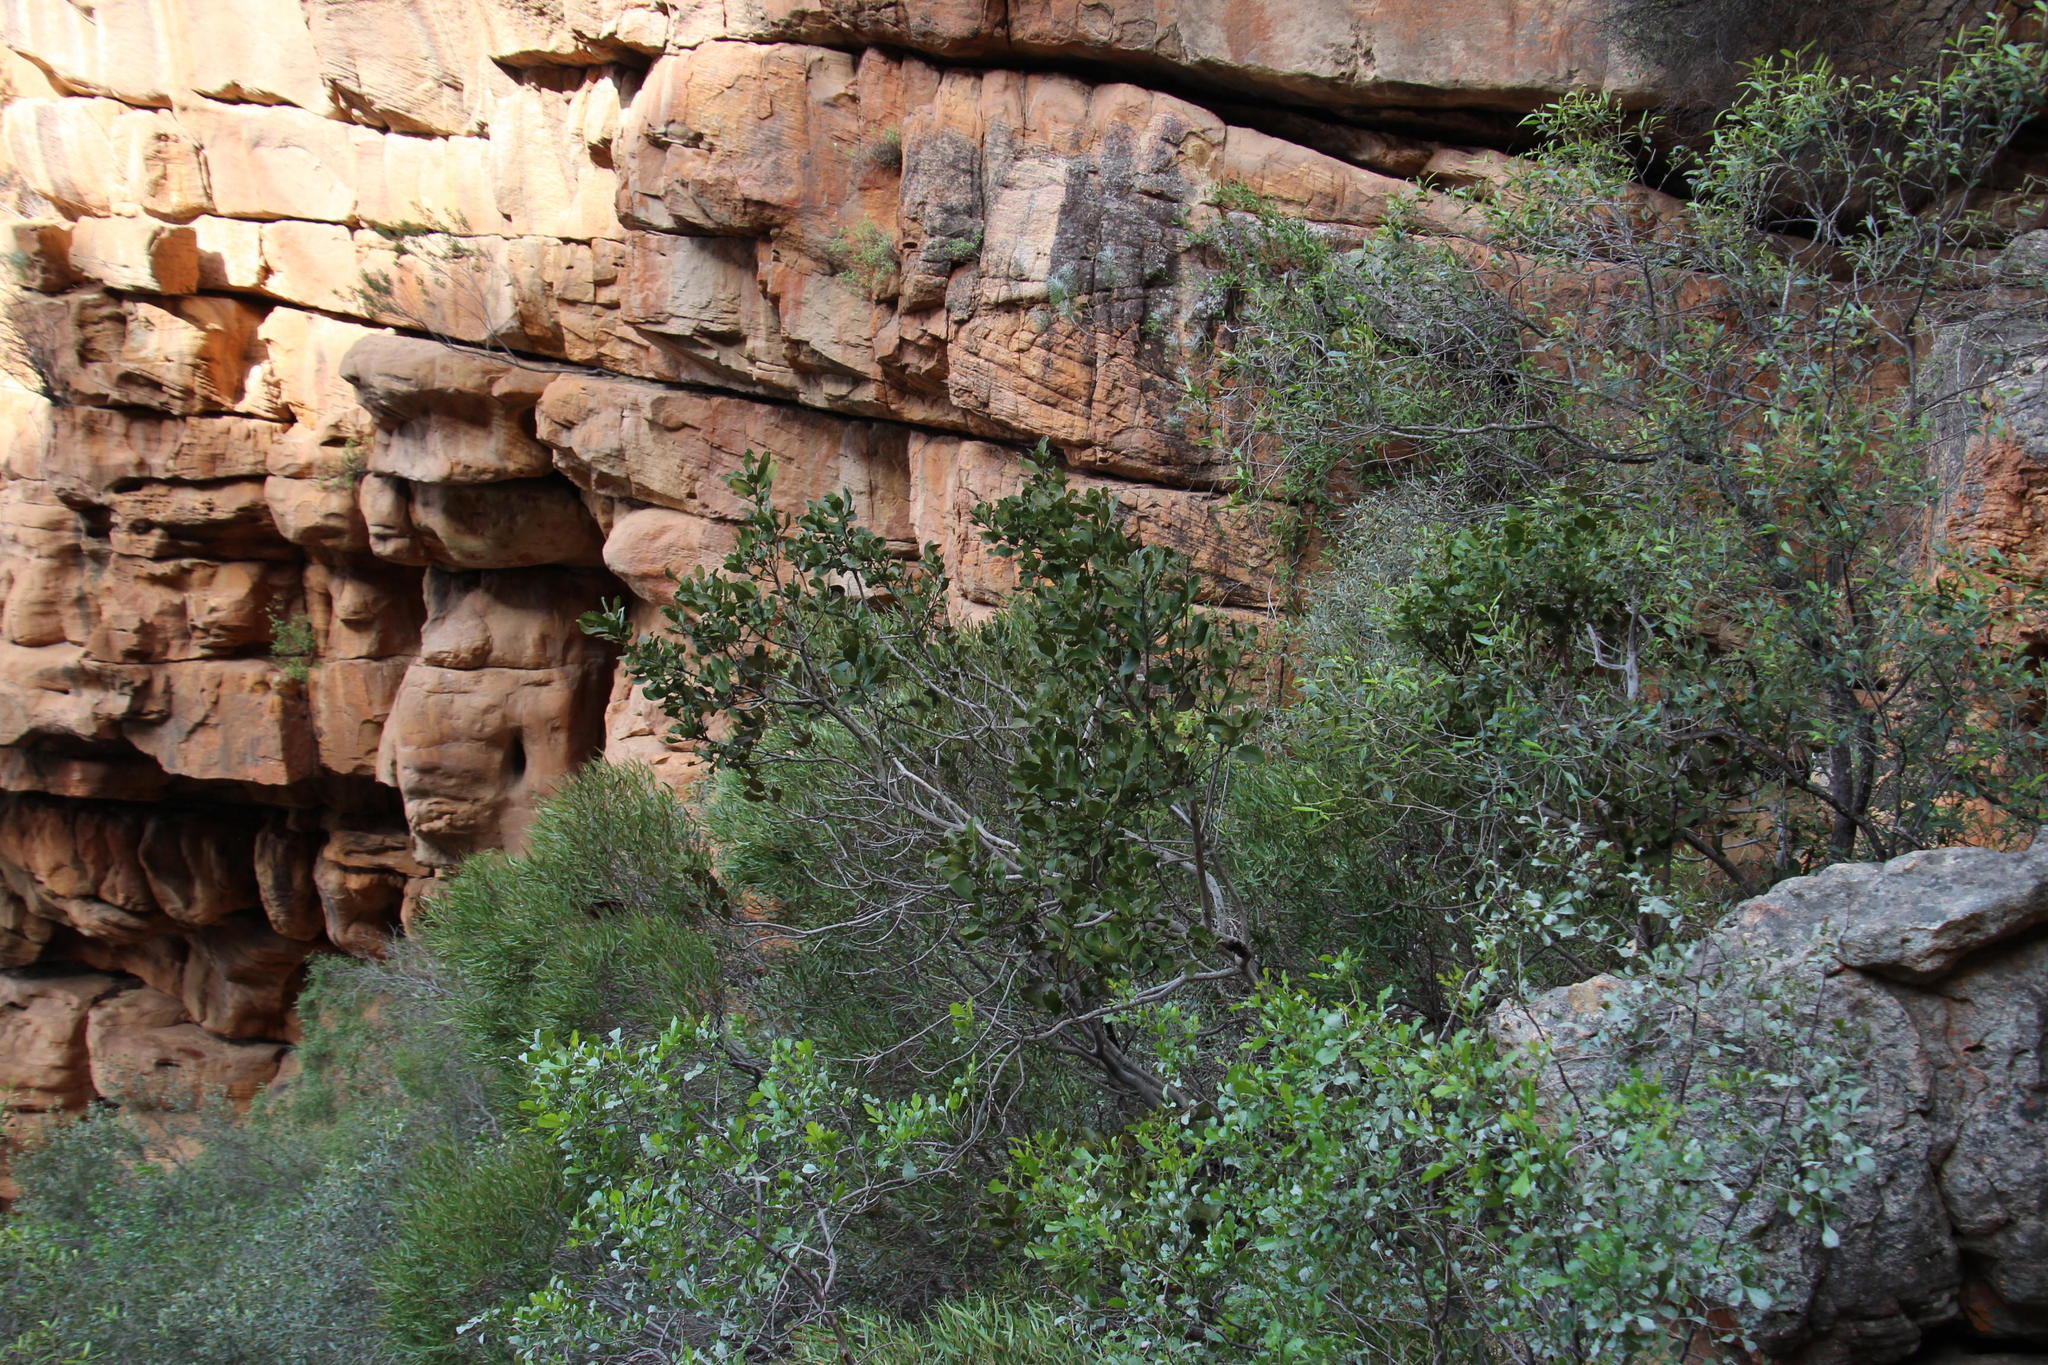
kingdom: Plantae
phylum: Tracheophyta
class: Magnoliopsida
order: Ericales
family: Ebenaceae
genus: Euclea
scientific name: Euclea tomentosa
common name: Honey guarri
